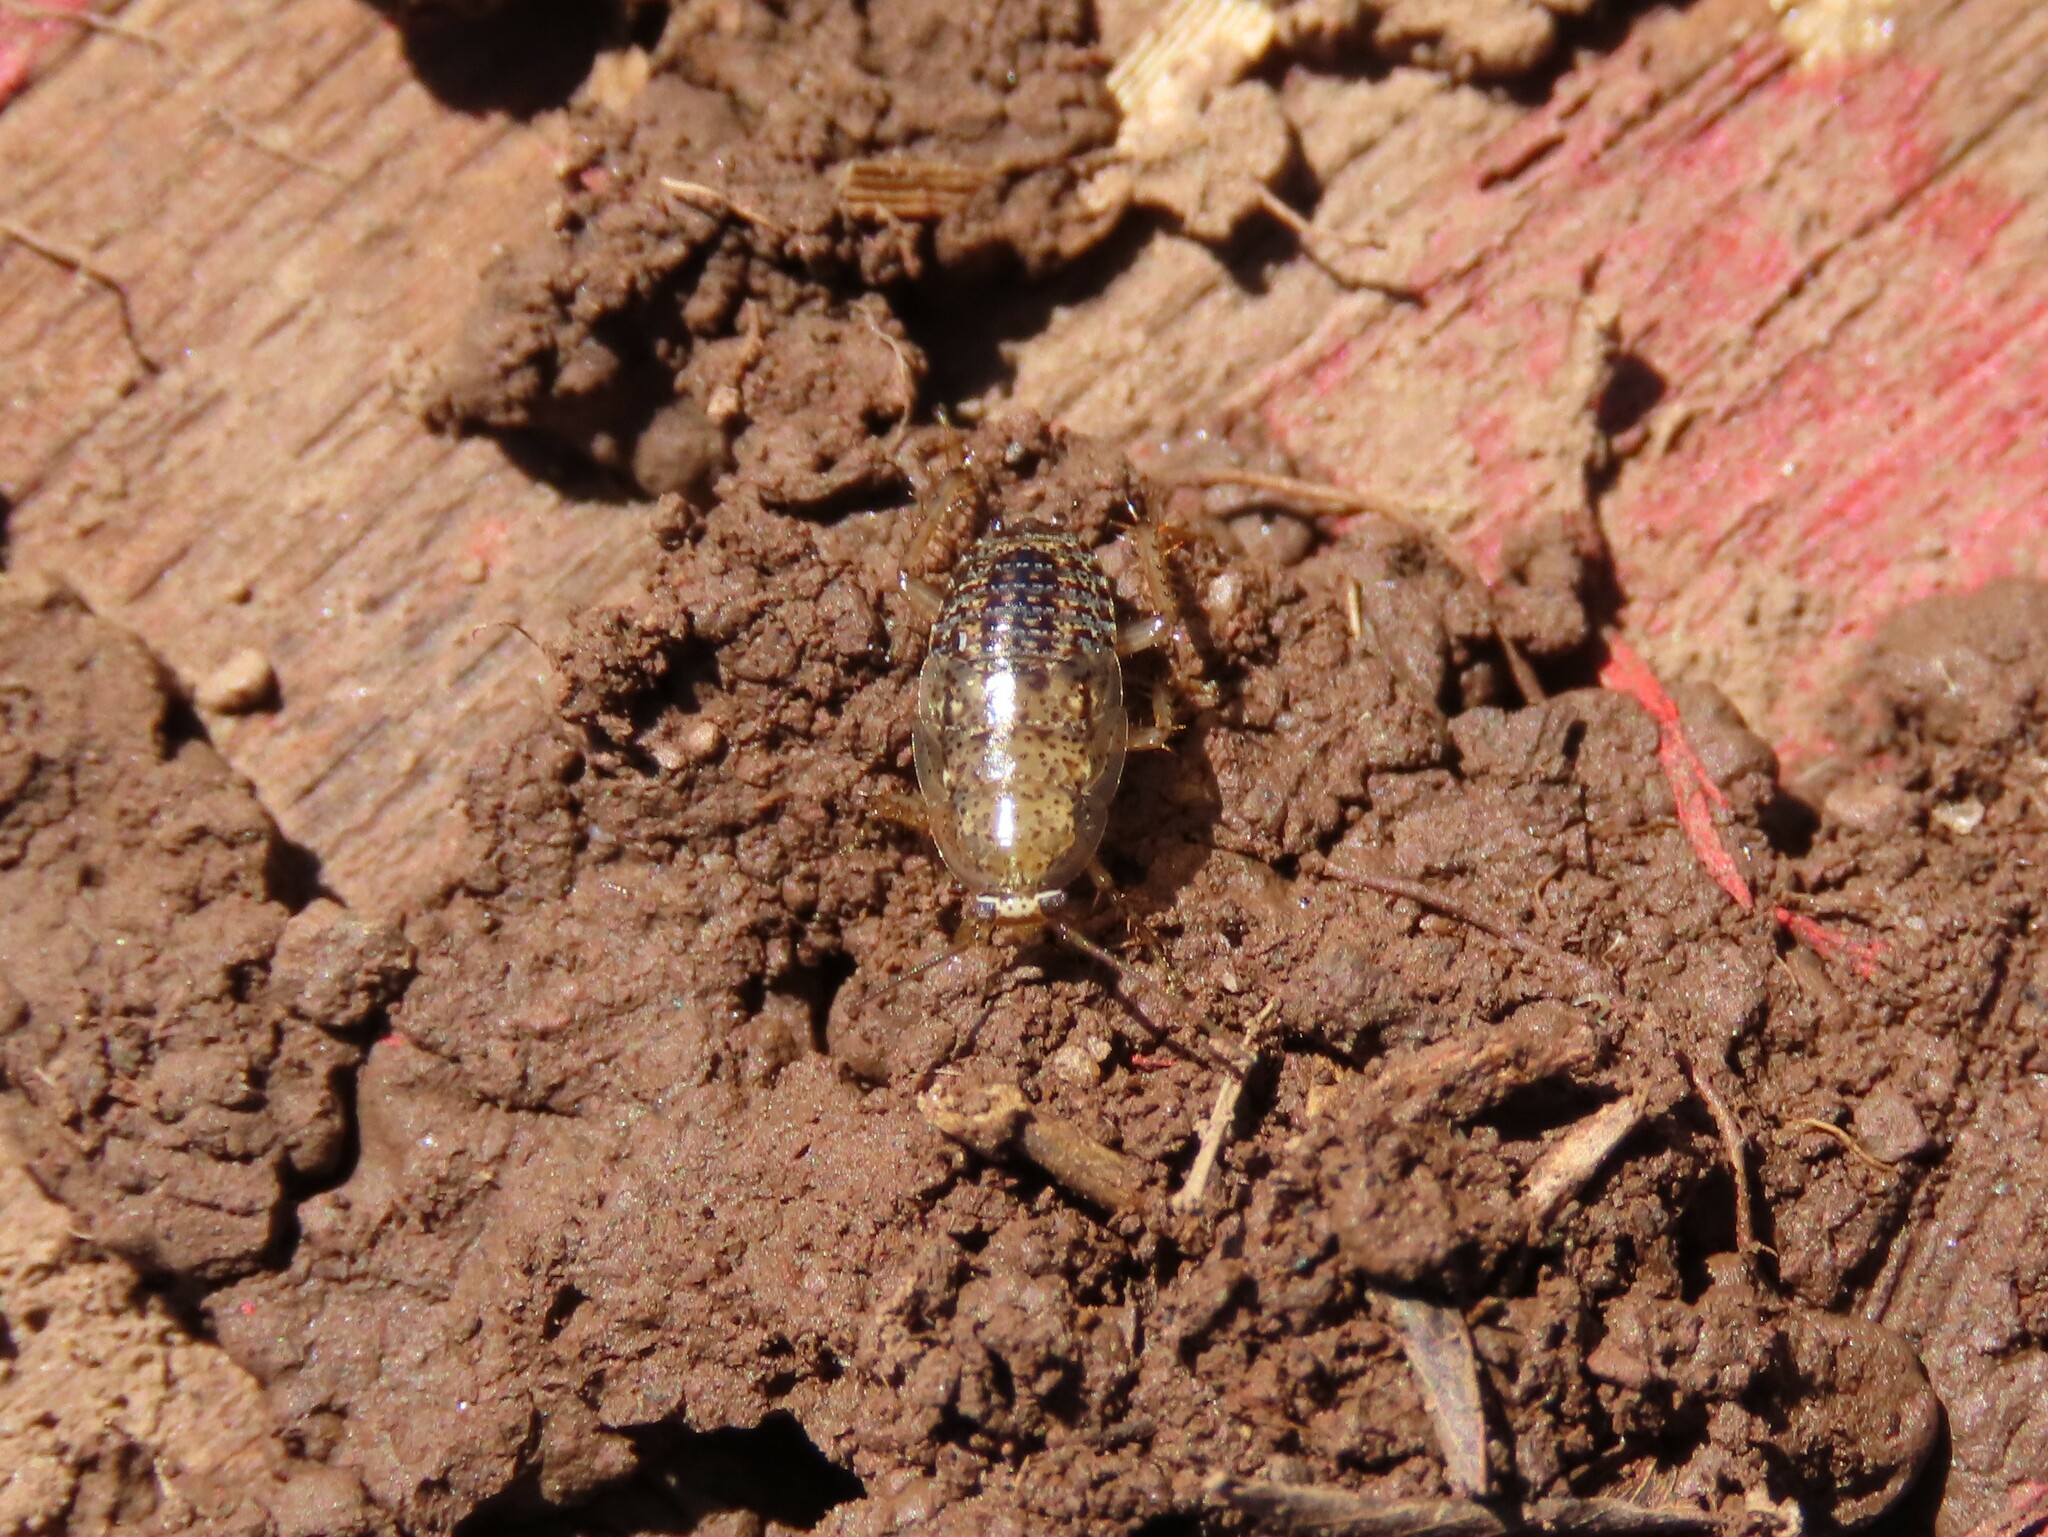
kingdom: Animalia
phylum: Arthropoda
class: Insecta
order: Blattodea
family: Ectobiidae
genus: Ectobius
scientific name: Ectobius pallidus
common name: Tawny cockroach
